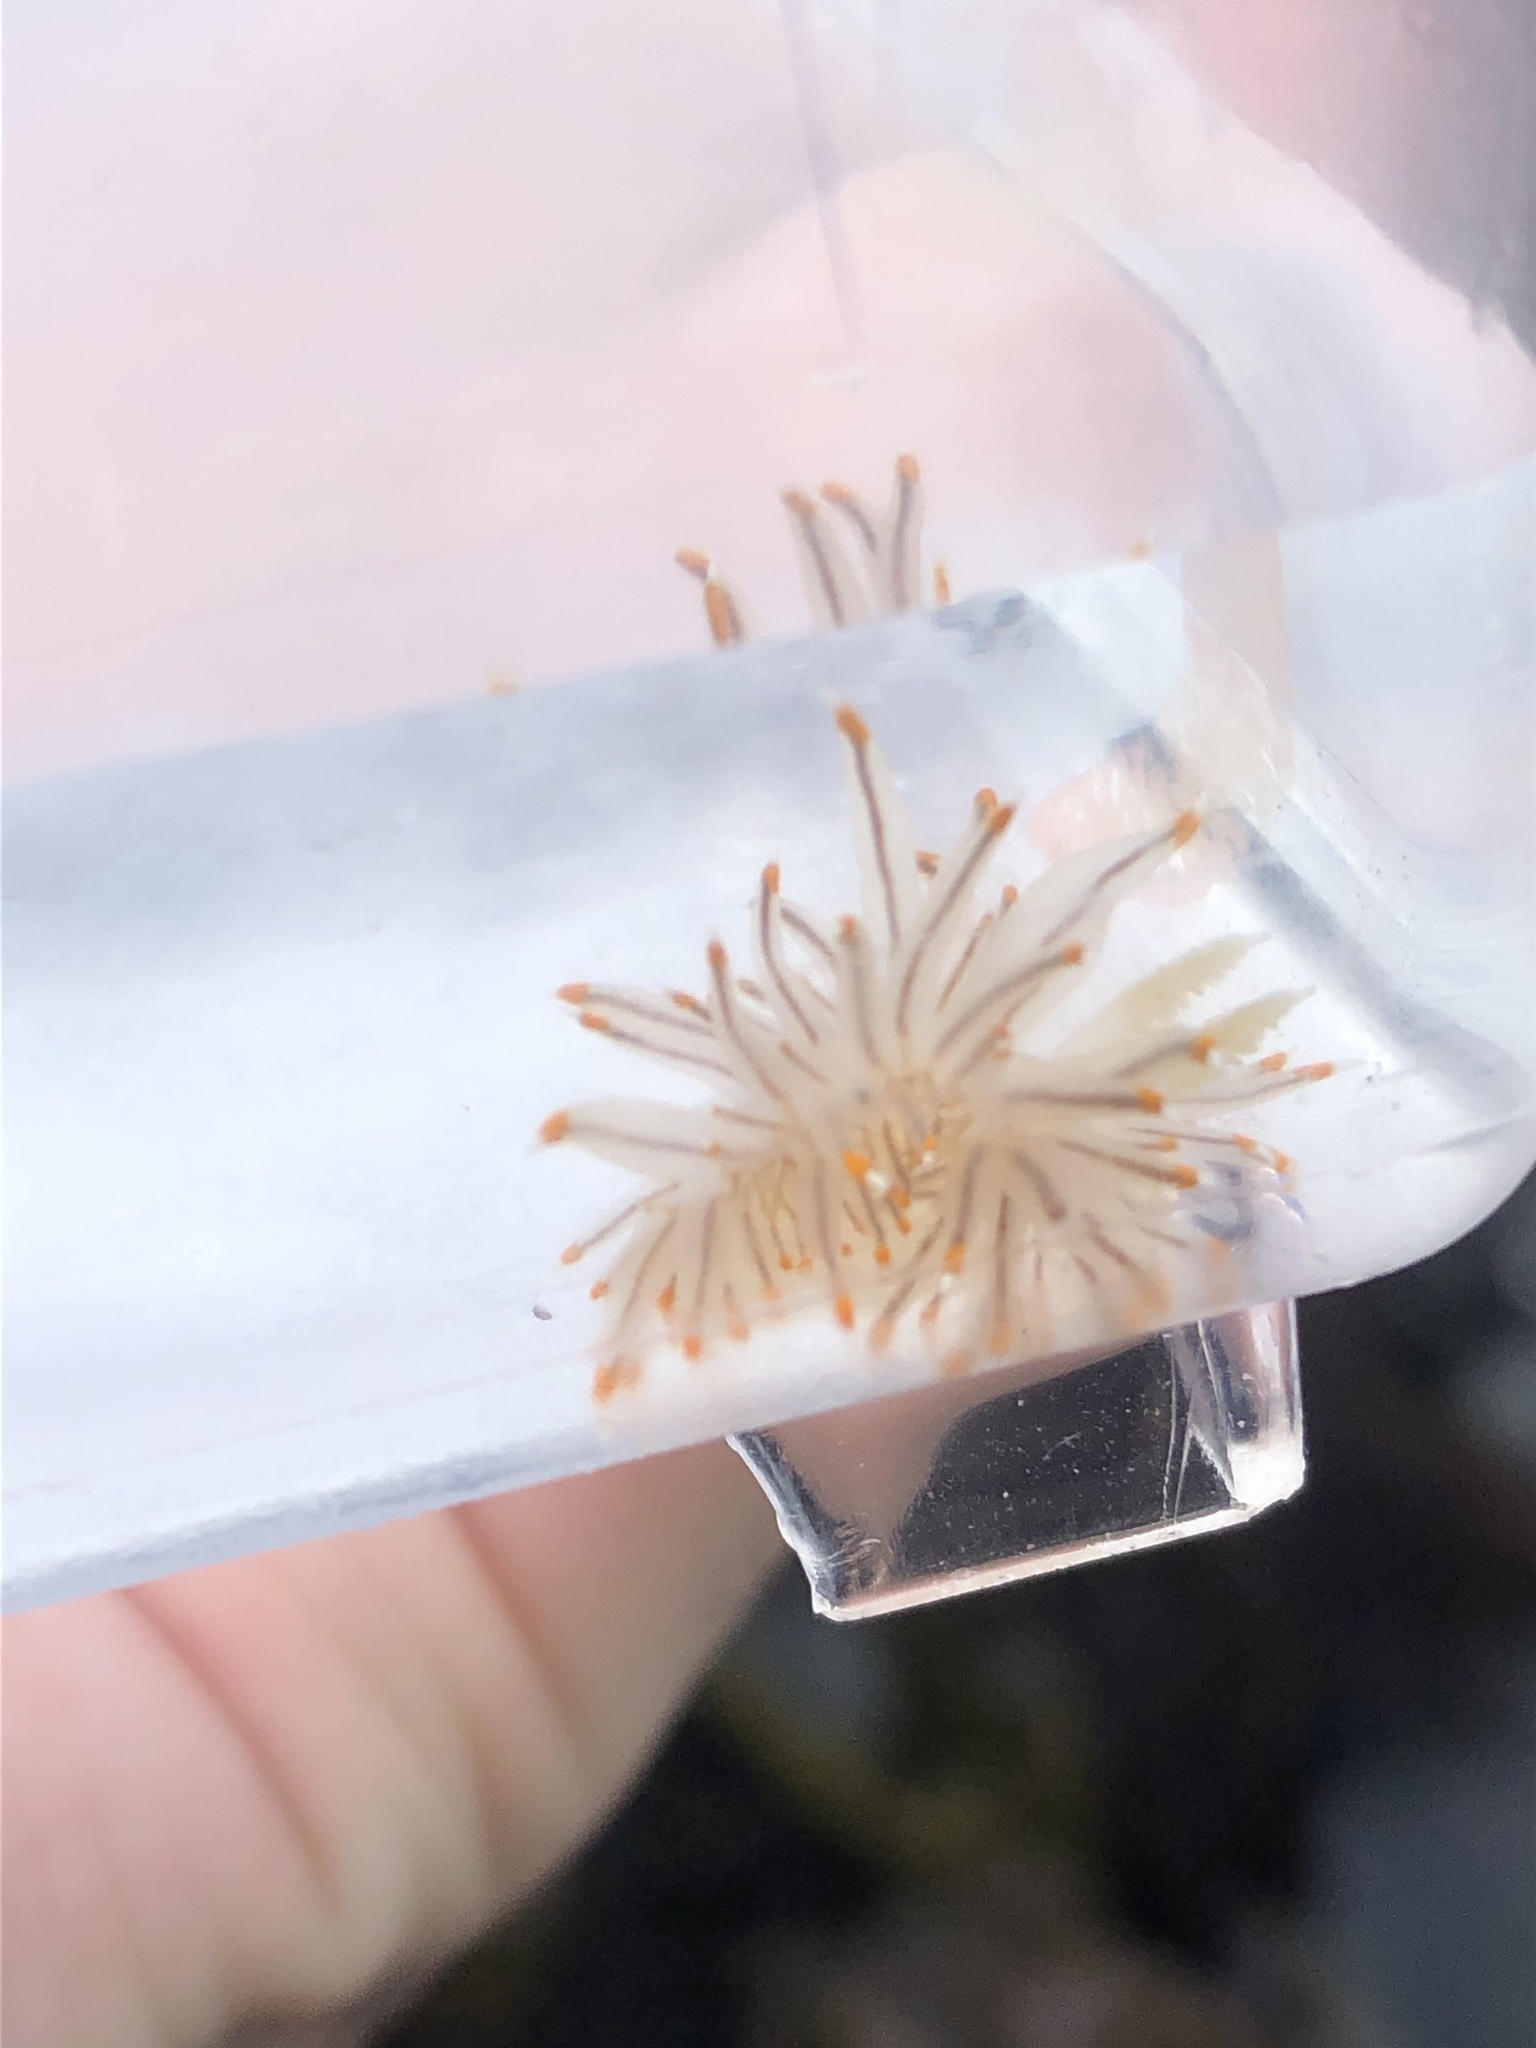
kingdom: Animalia
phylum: Mollusca
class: Gastropoda
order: Nudibranchia
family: Janolidae
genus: Antiopella
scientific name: Antiopella fusca
